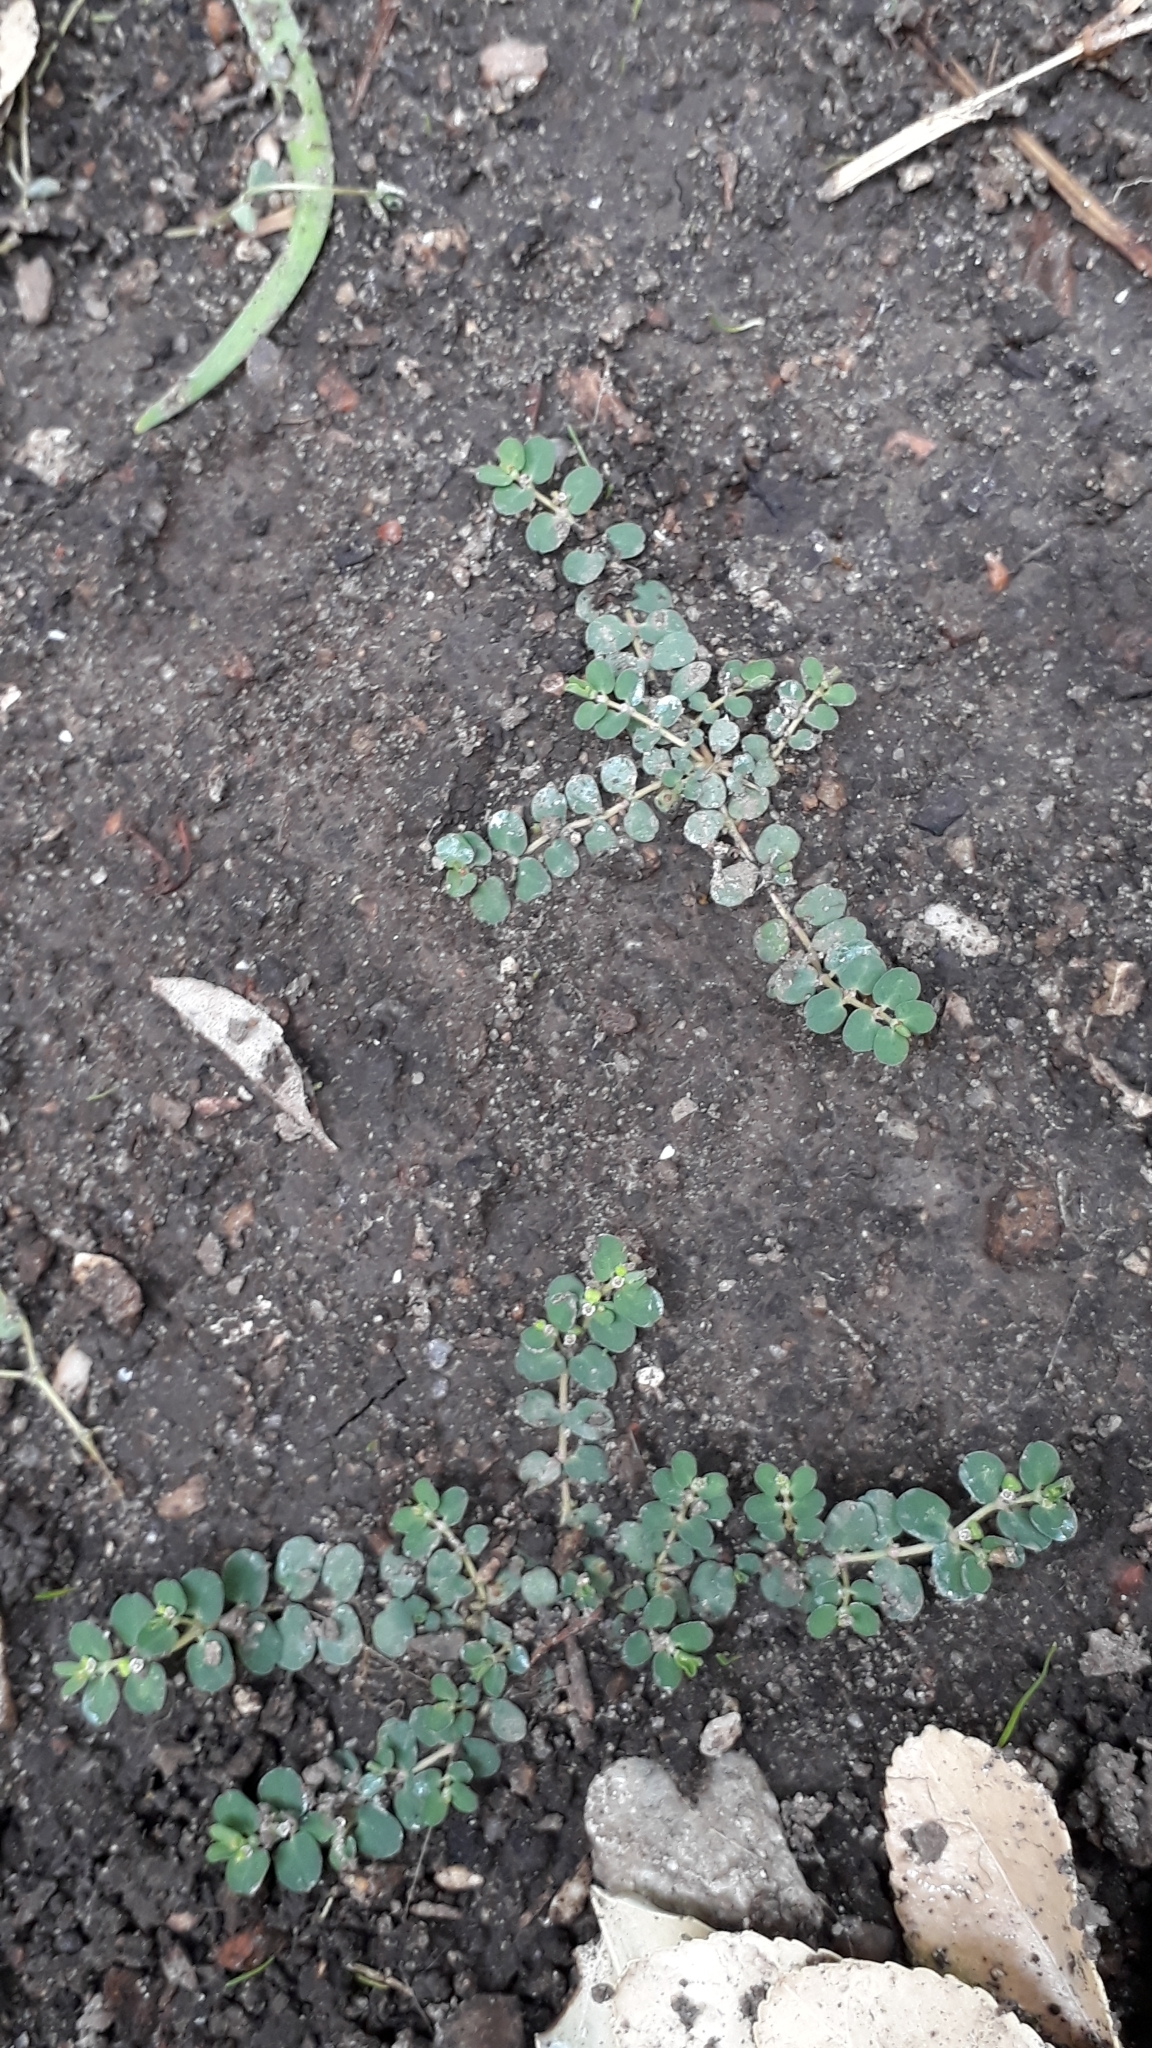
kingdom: Plantae
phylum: Tracheophyta
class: Magnoliopsida
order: Malpighiales
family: Euphorbiaceae
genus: Euphorbia
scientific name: Euphorbia serpens
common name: Matted sandmat
